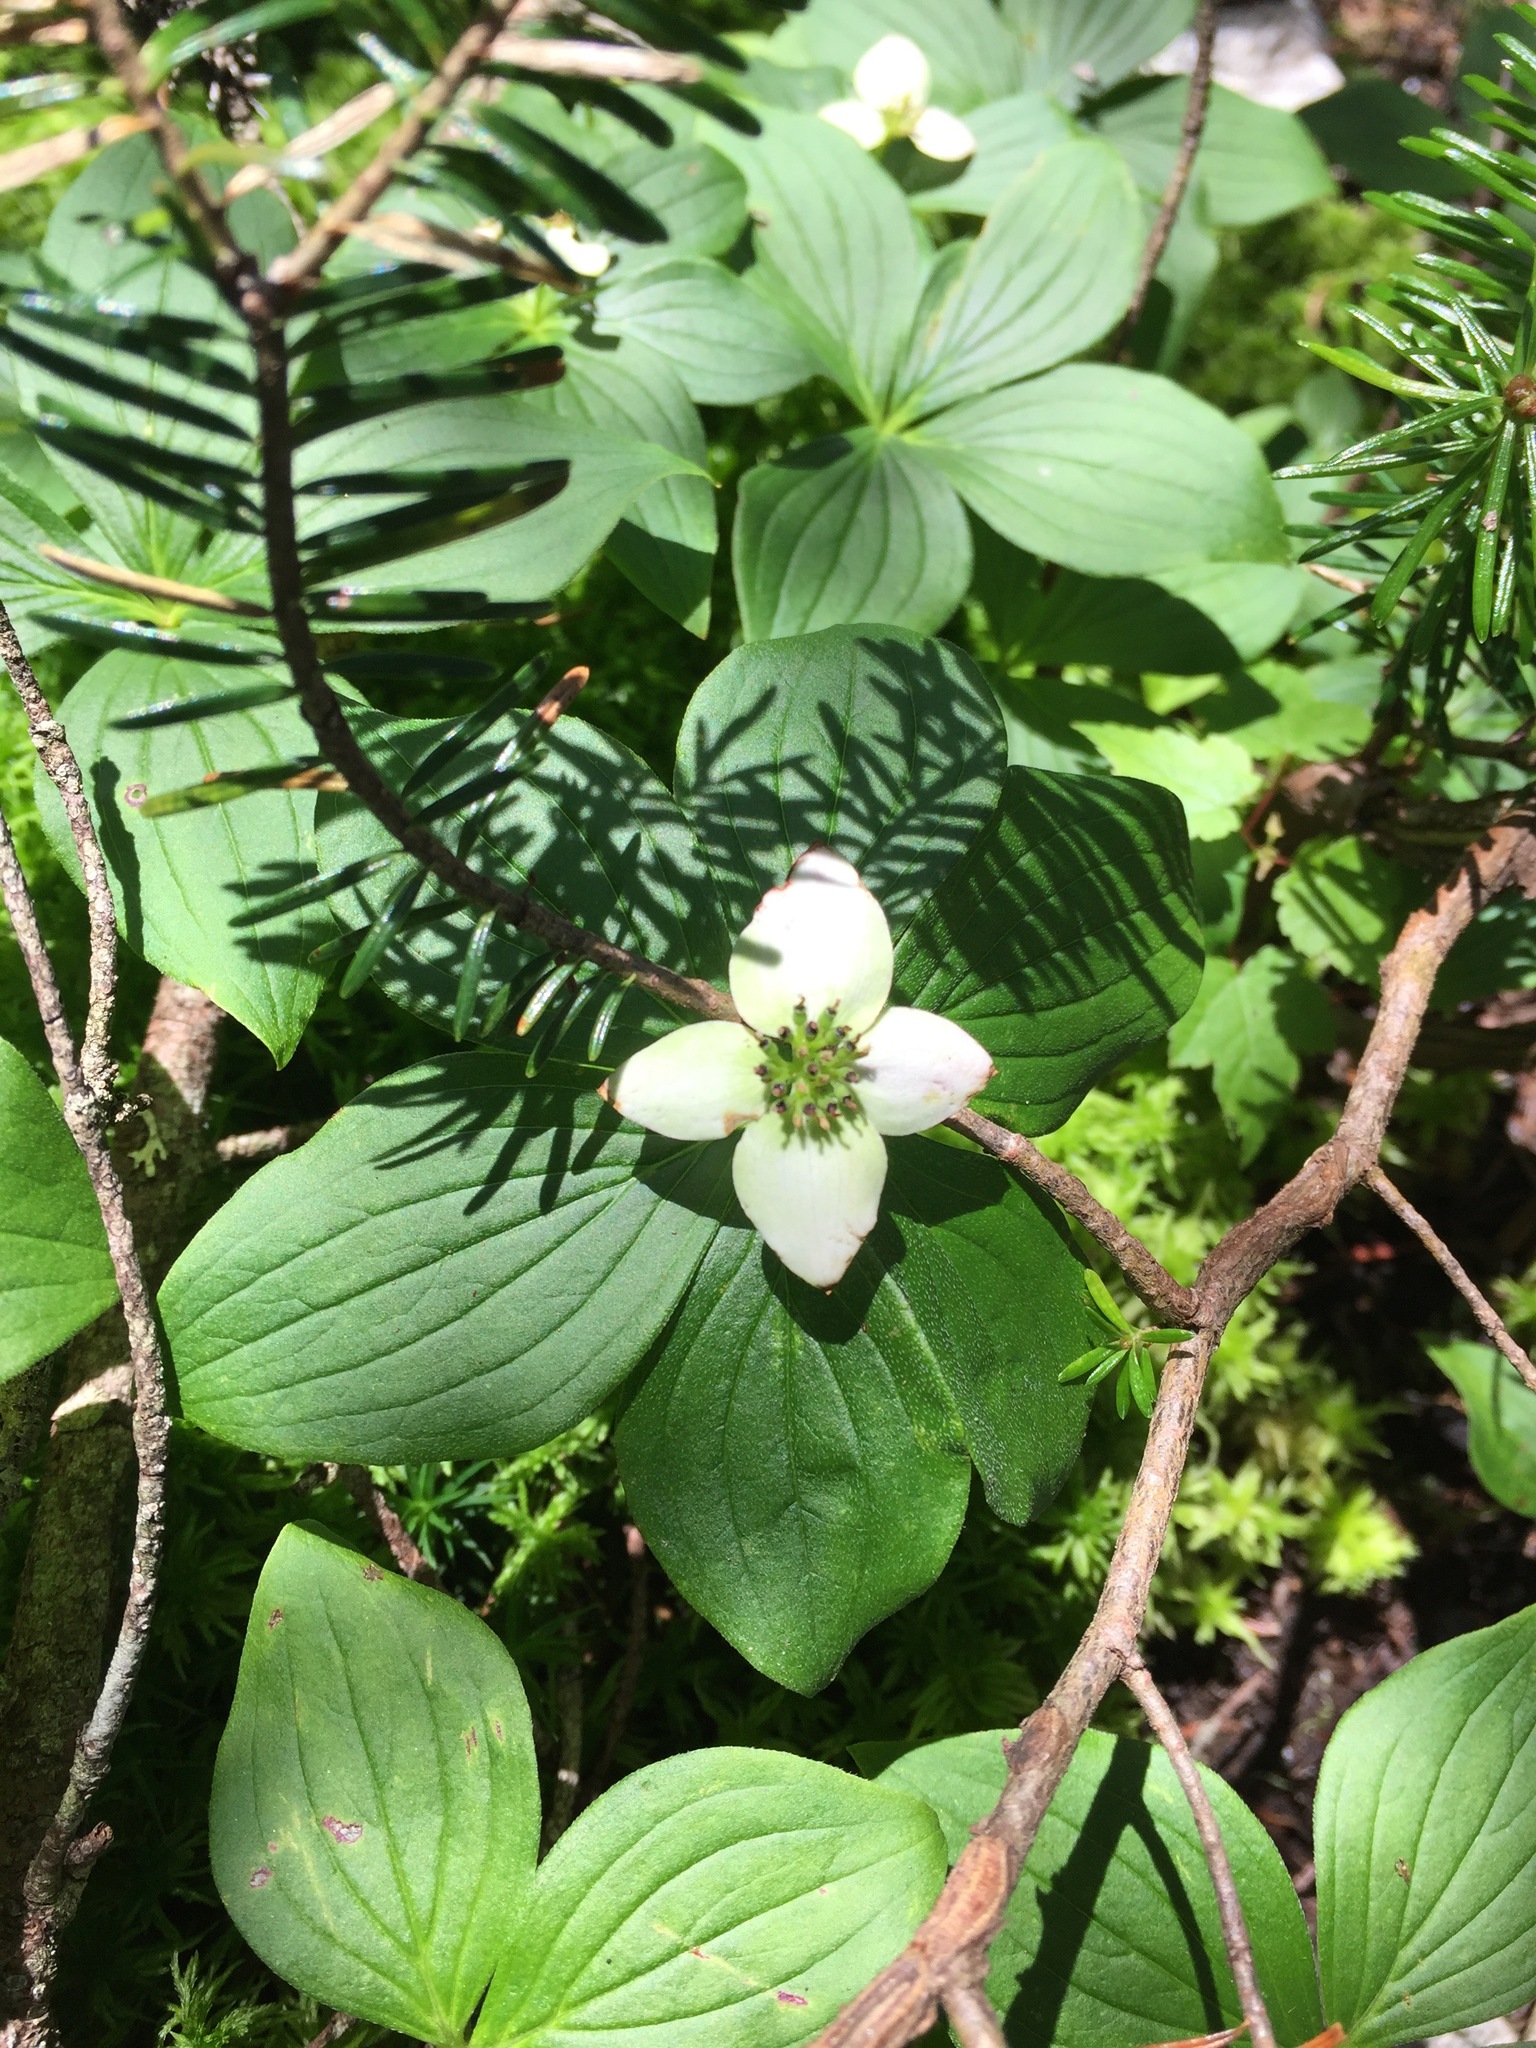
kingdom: Plantae
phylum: Tracheophyta
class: Magnoliopsida
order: Cornales
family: Cornaceae
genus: Cornus
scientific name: Cornus canadensis
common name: Creeping dogwood
